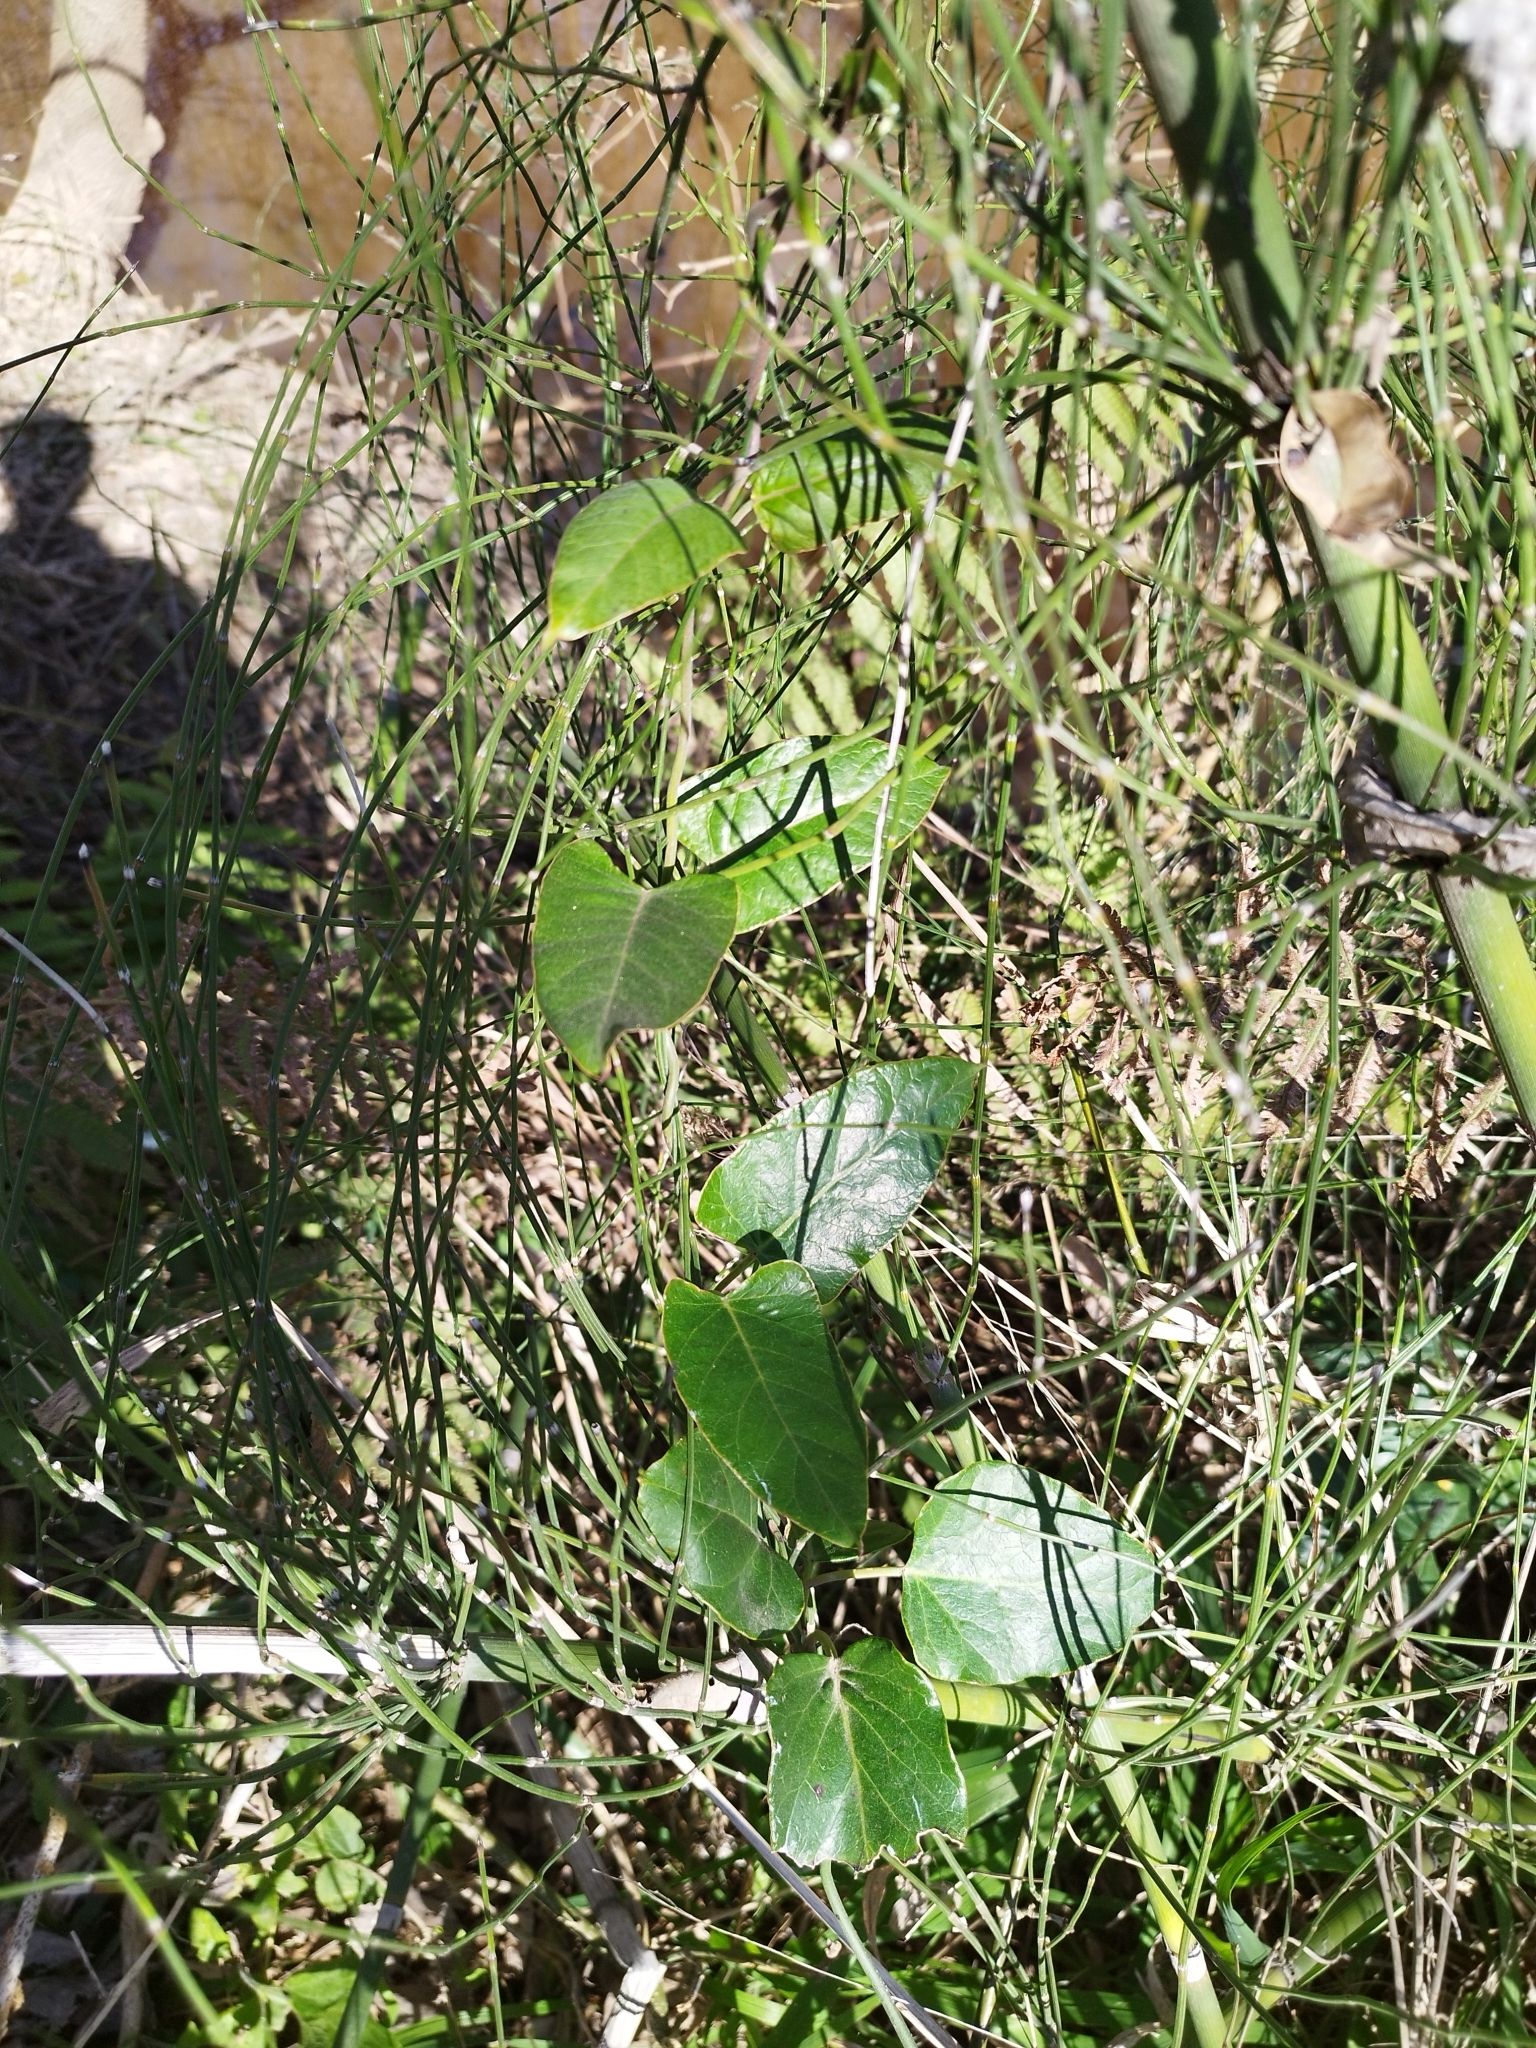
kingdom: Plantae
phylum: Tracheophyta
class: Magnoliopsida
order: Gentianales
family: Apocynaceae
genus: Araujia
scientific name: Araujia sericifera
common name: White bladderflower
